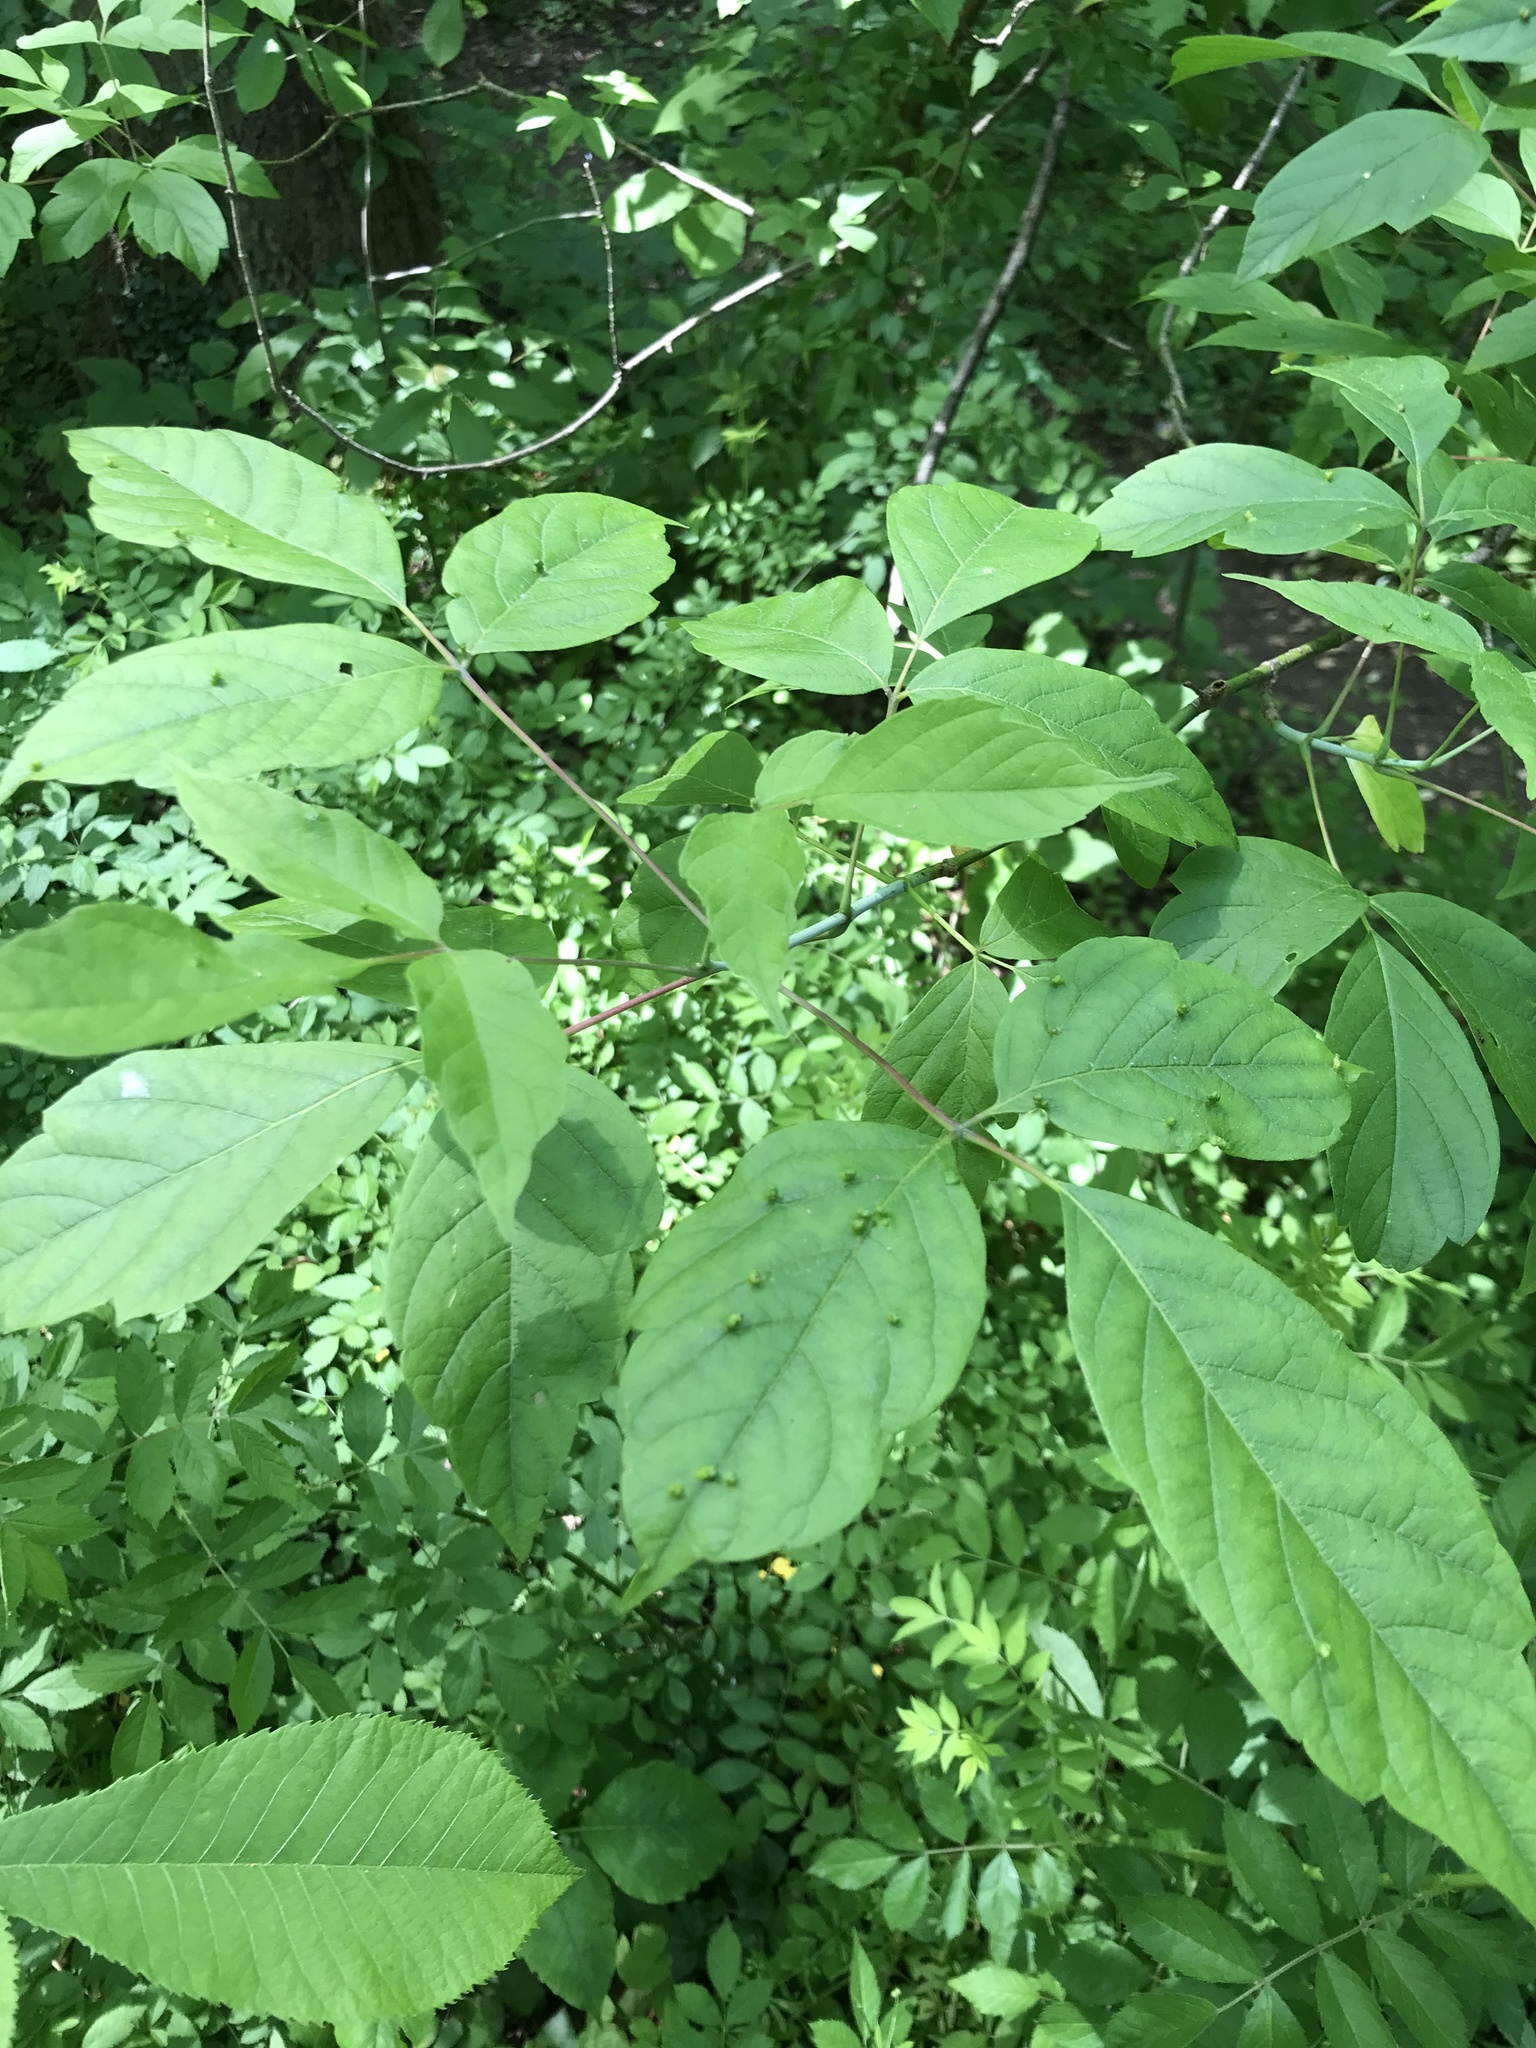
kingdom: Animalia
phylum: Arthropoda
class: Arachnida
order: Trombidiformes
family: Eriophyidae
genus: Aceria
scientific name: Aceria
